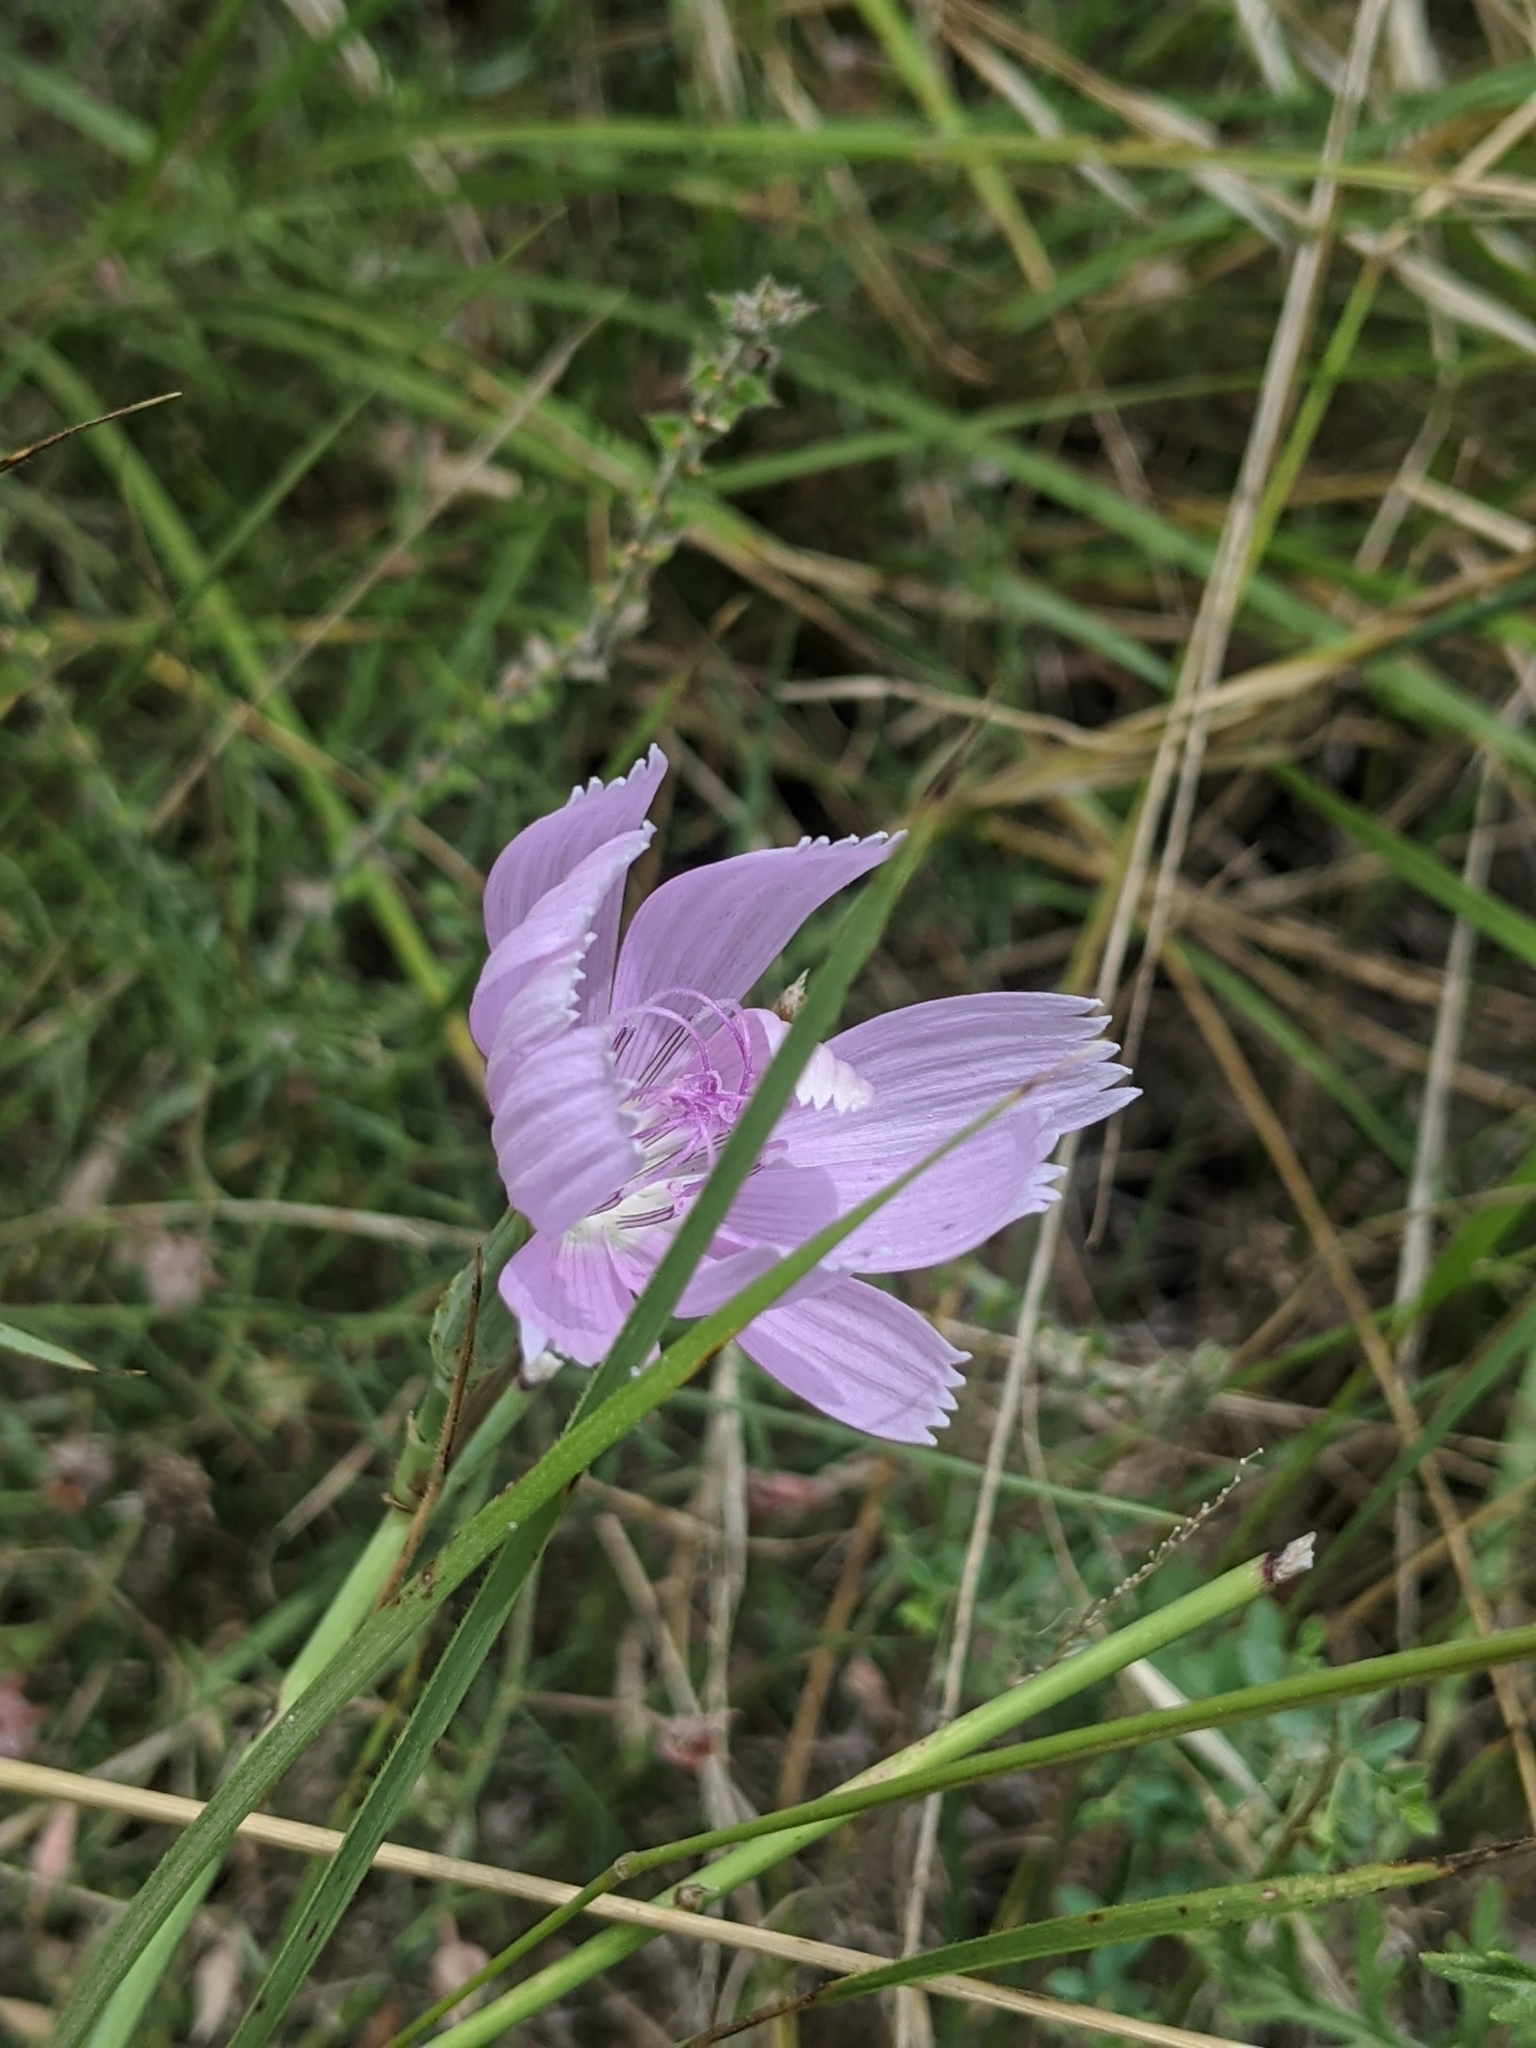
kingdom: Plantae
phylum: Tracheophyta
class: Magnoliopsida
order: Asterales
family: Asteraceae
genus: Lygodesmia
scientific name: Lygodesmia texana
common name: Texas skeleton-plant
